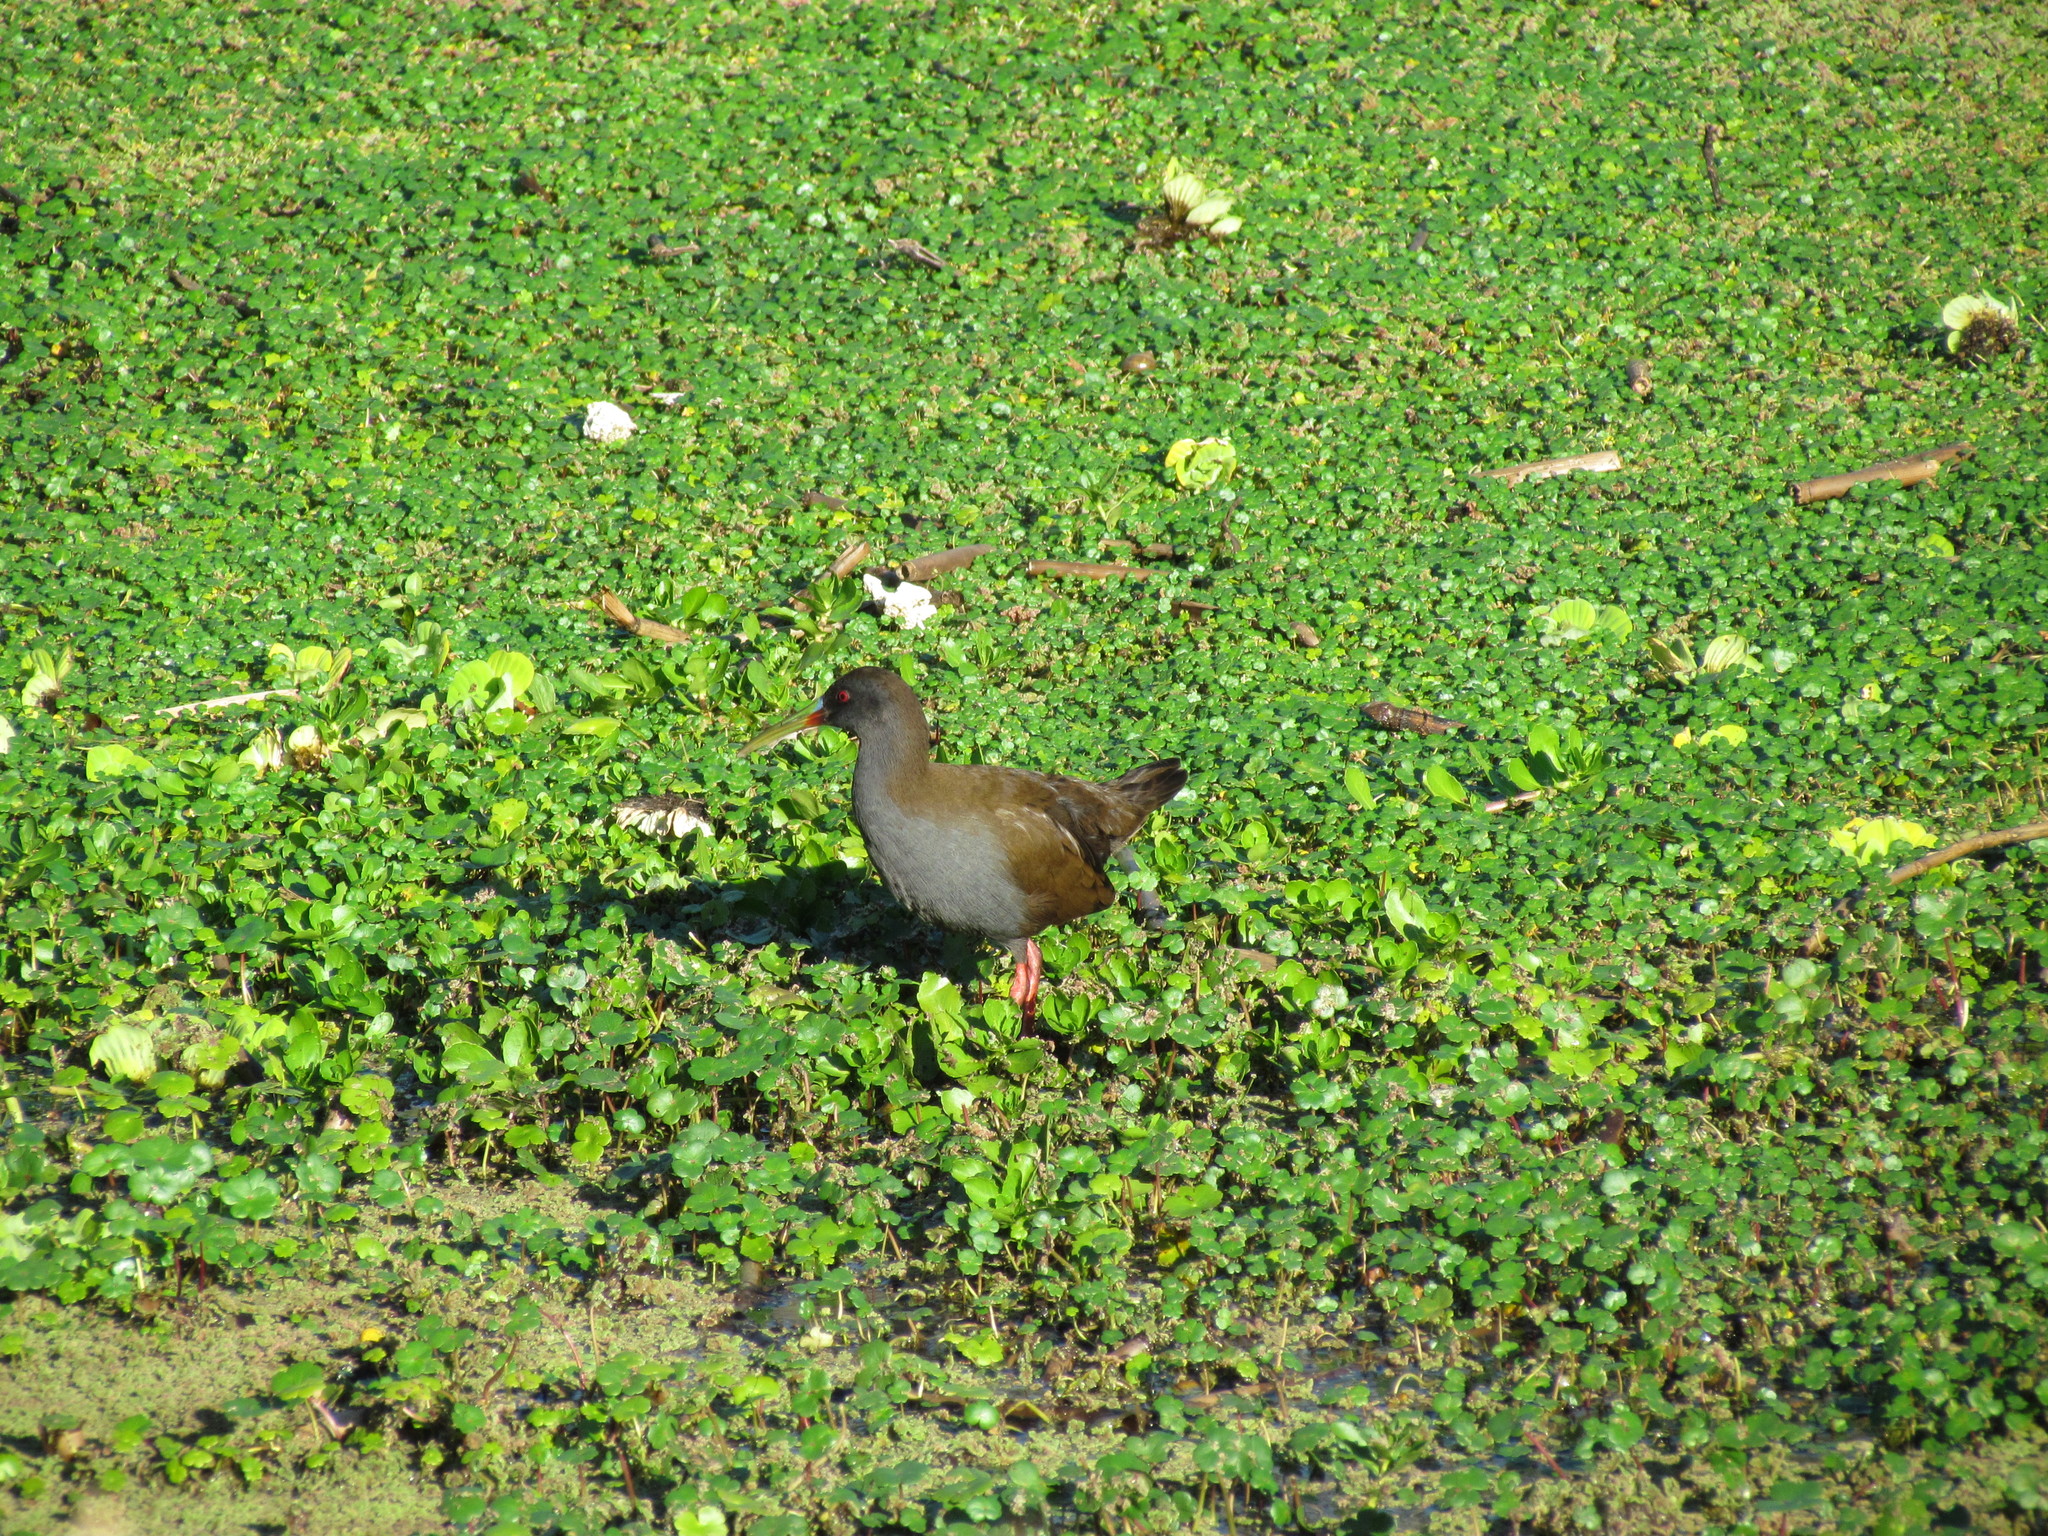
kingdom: Animalia
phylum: Chordata
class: Aves
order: Gruiformes
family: Rallidae
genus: Pardirallus
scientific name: Pardirallus sanguinolentus
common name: Plumbeous rail
